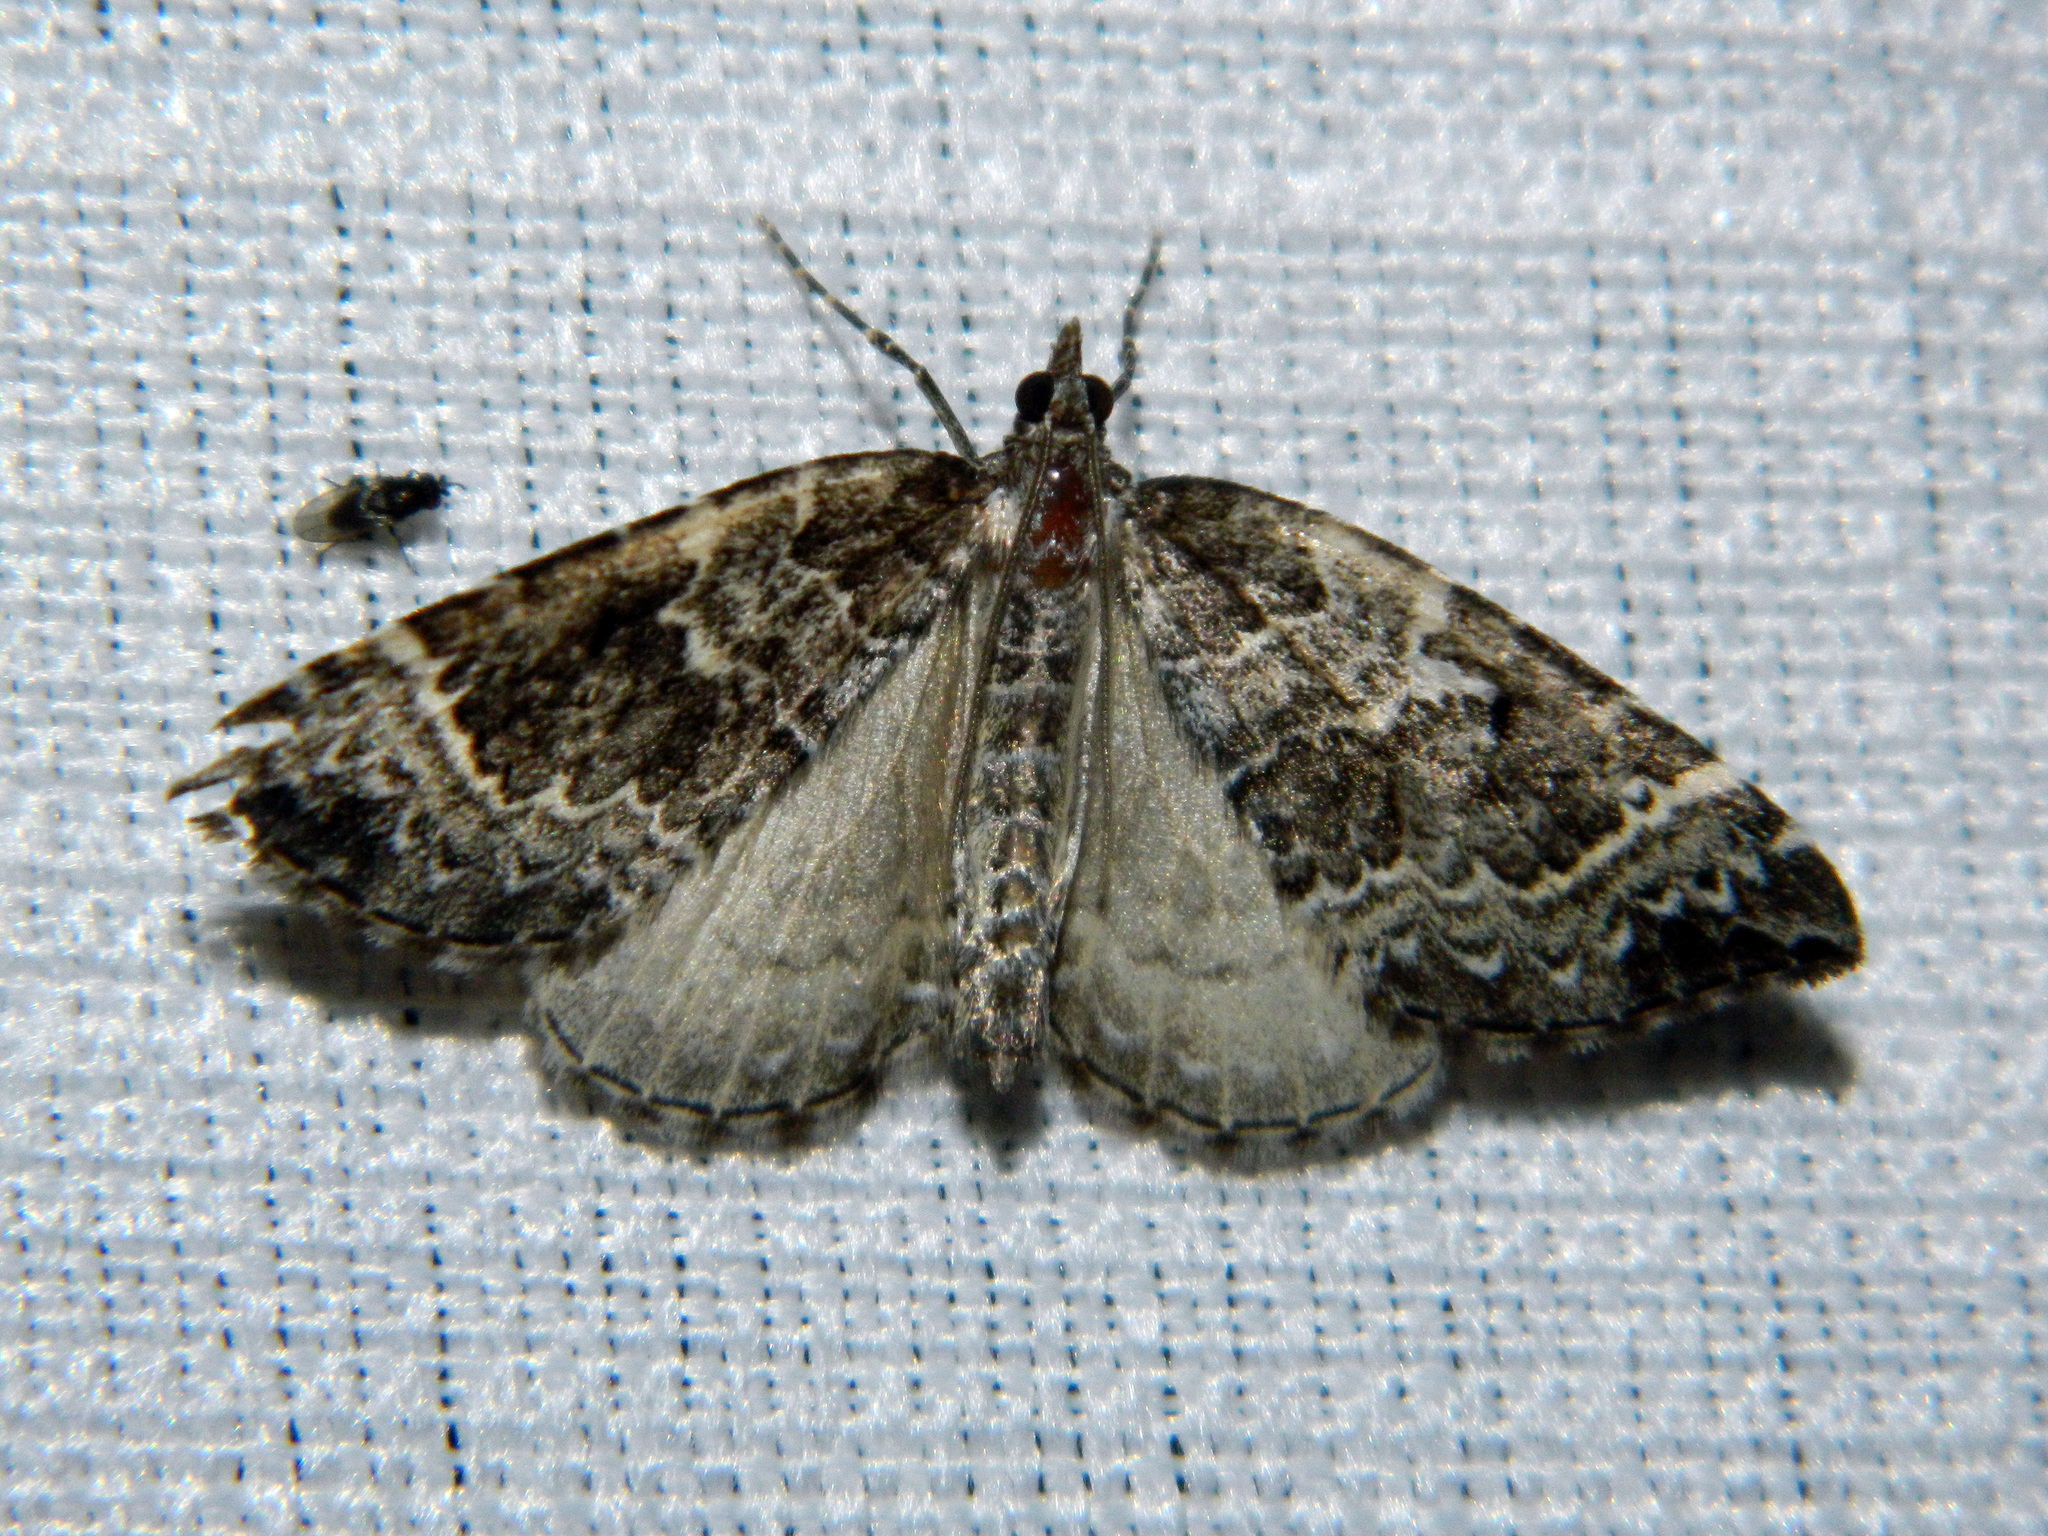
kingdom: Animalia
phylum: Arthropoda
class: Insecta
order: Lepidoptera
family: Geometridae
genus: Eulithis
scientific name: Eulithis explanata
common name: White eulithis
